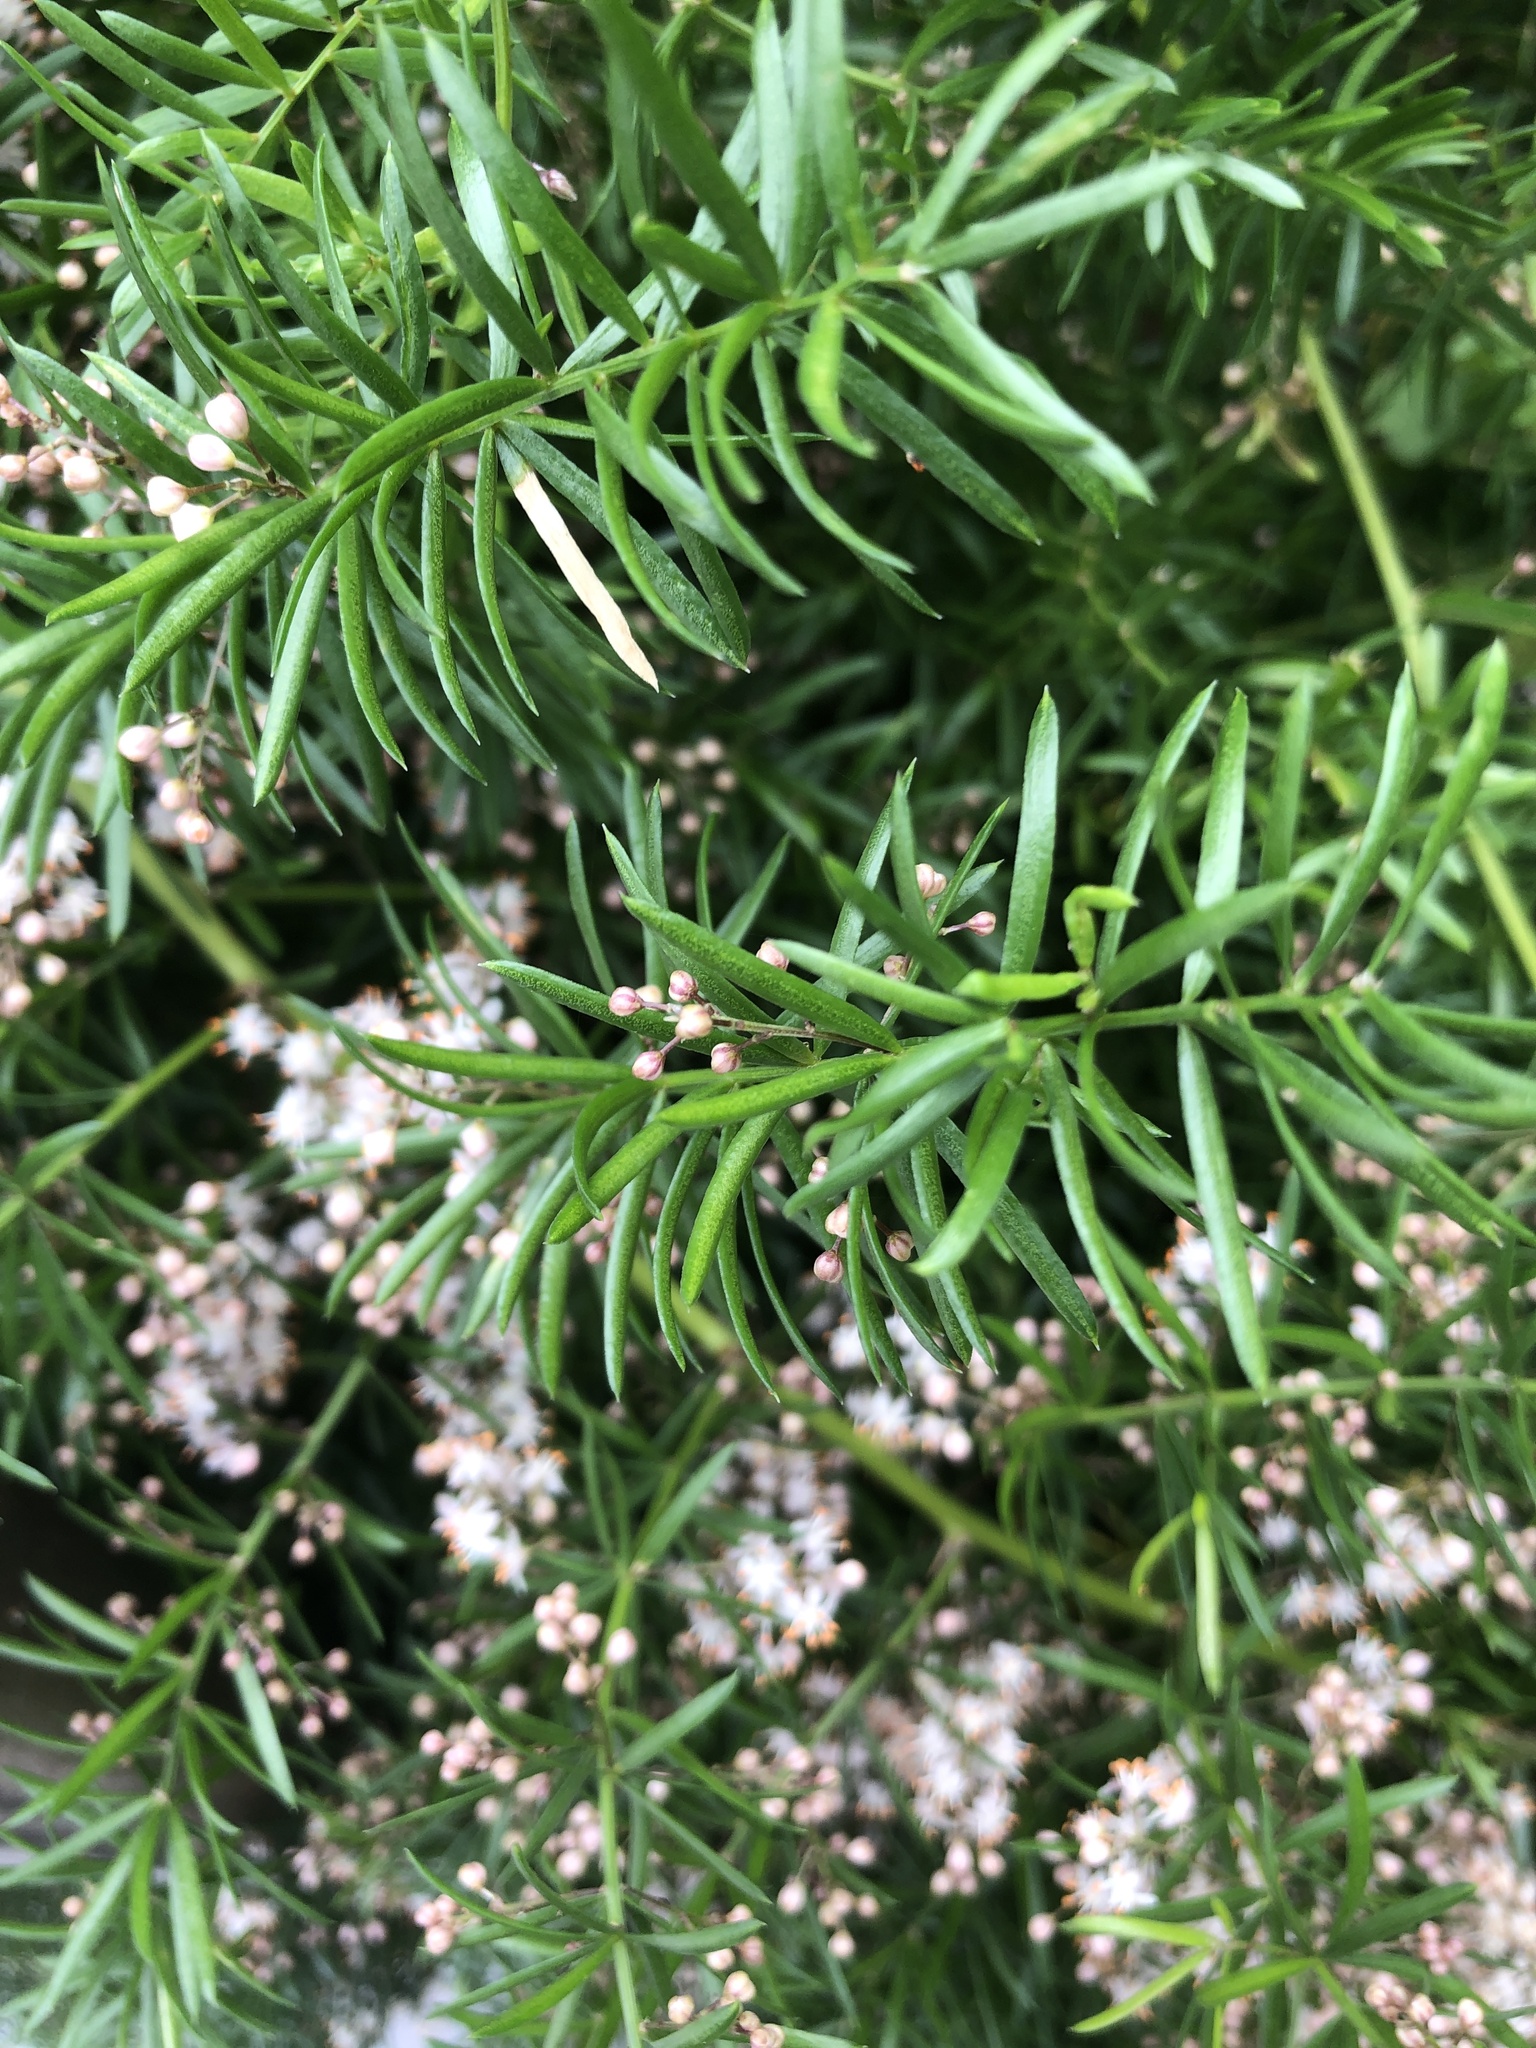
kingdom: Plantae
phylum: Tracheophyta
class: Liliopsida
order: Asparagales
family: Asparagaceae
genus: Asparagus
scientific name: Asparagus cochinchinensis
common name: Chinese asparagus
